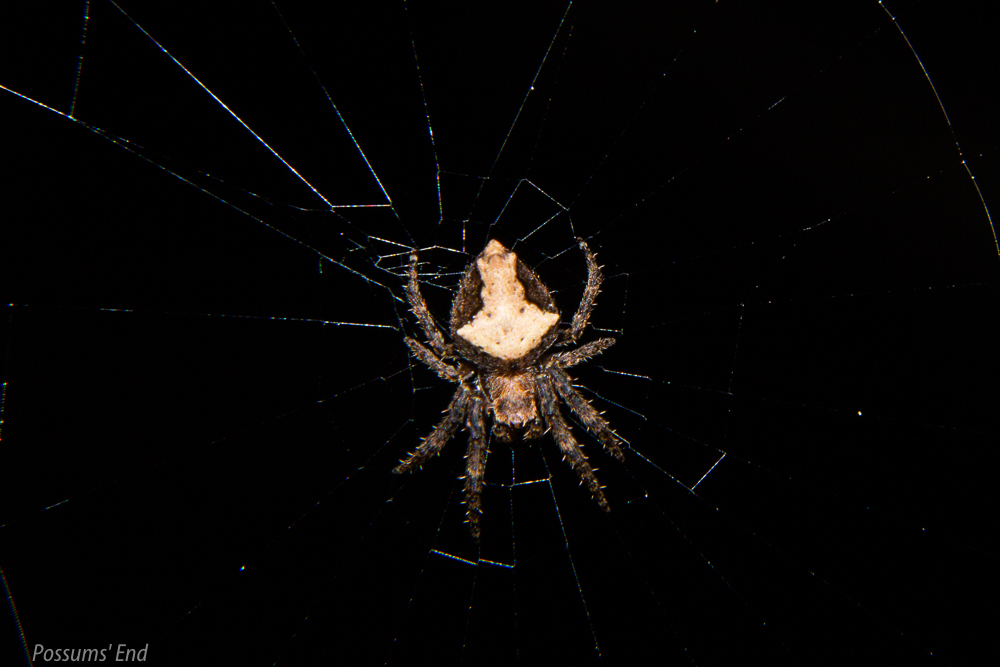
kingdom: Animalia
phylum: Arthropoda
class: Arachnida
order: Araneae
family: Araneidae
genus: Eriophora
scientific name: Eriophora pustulosa
